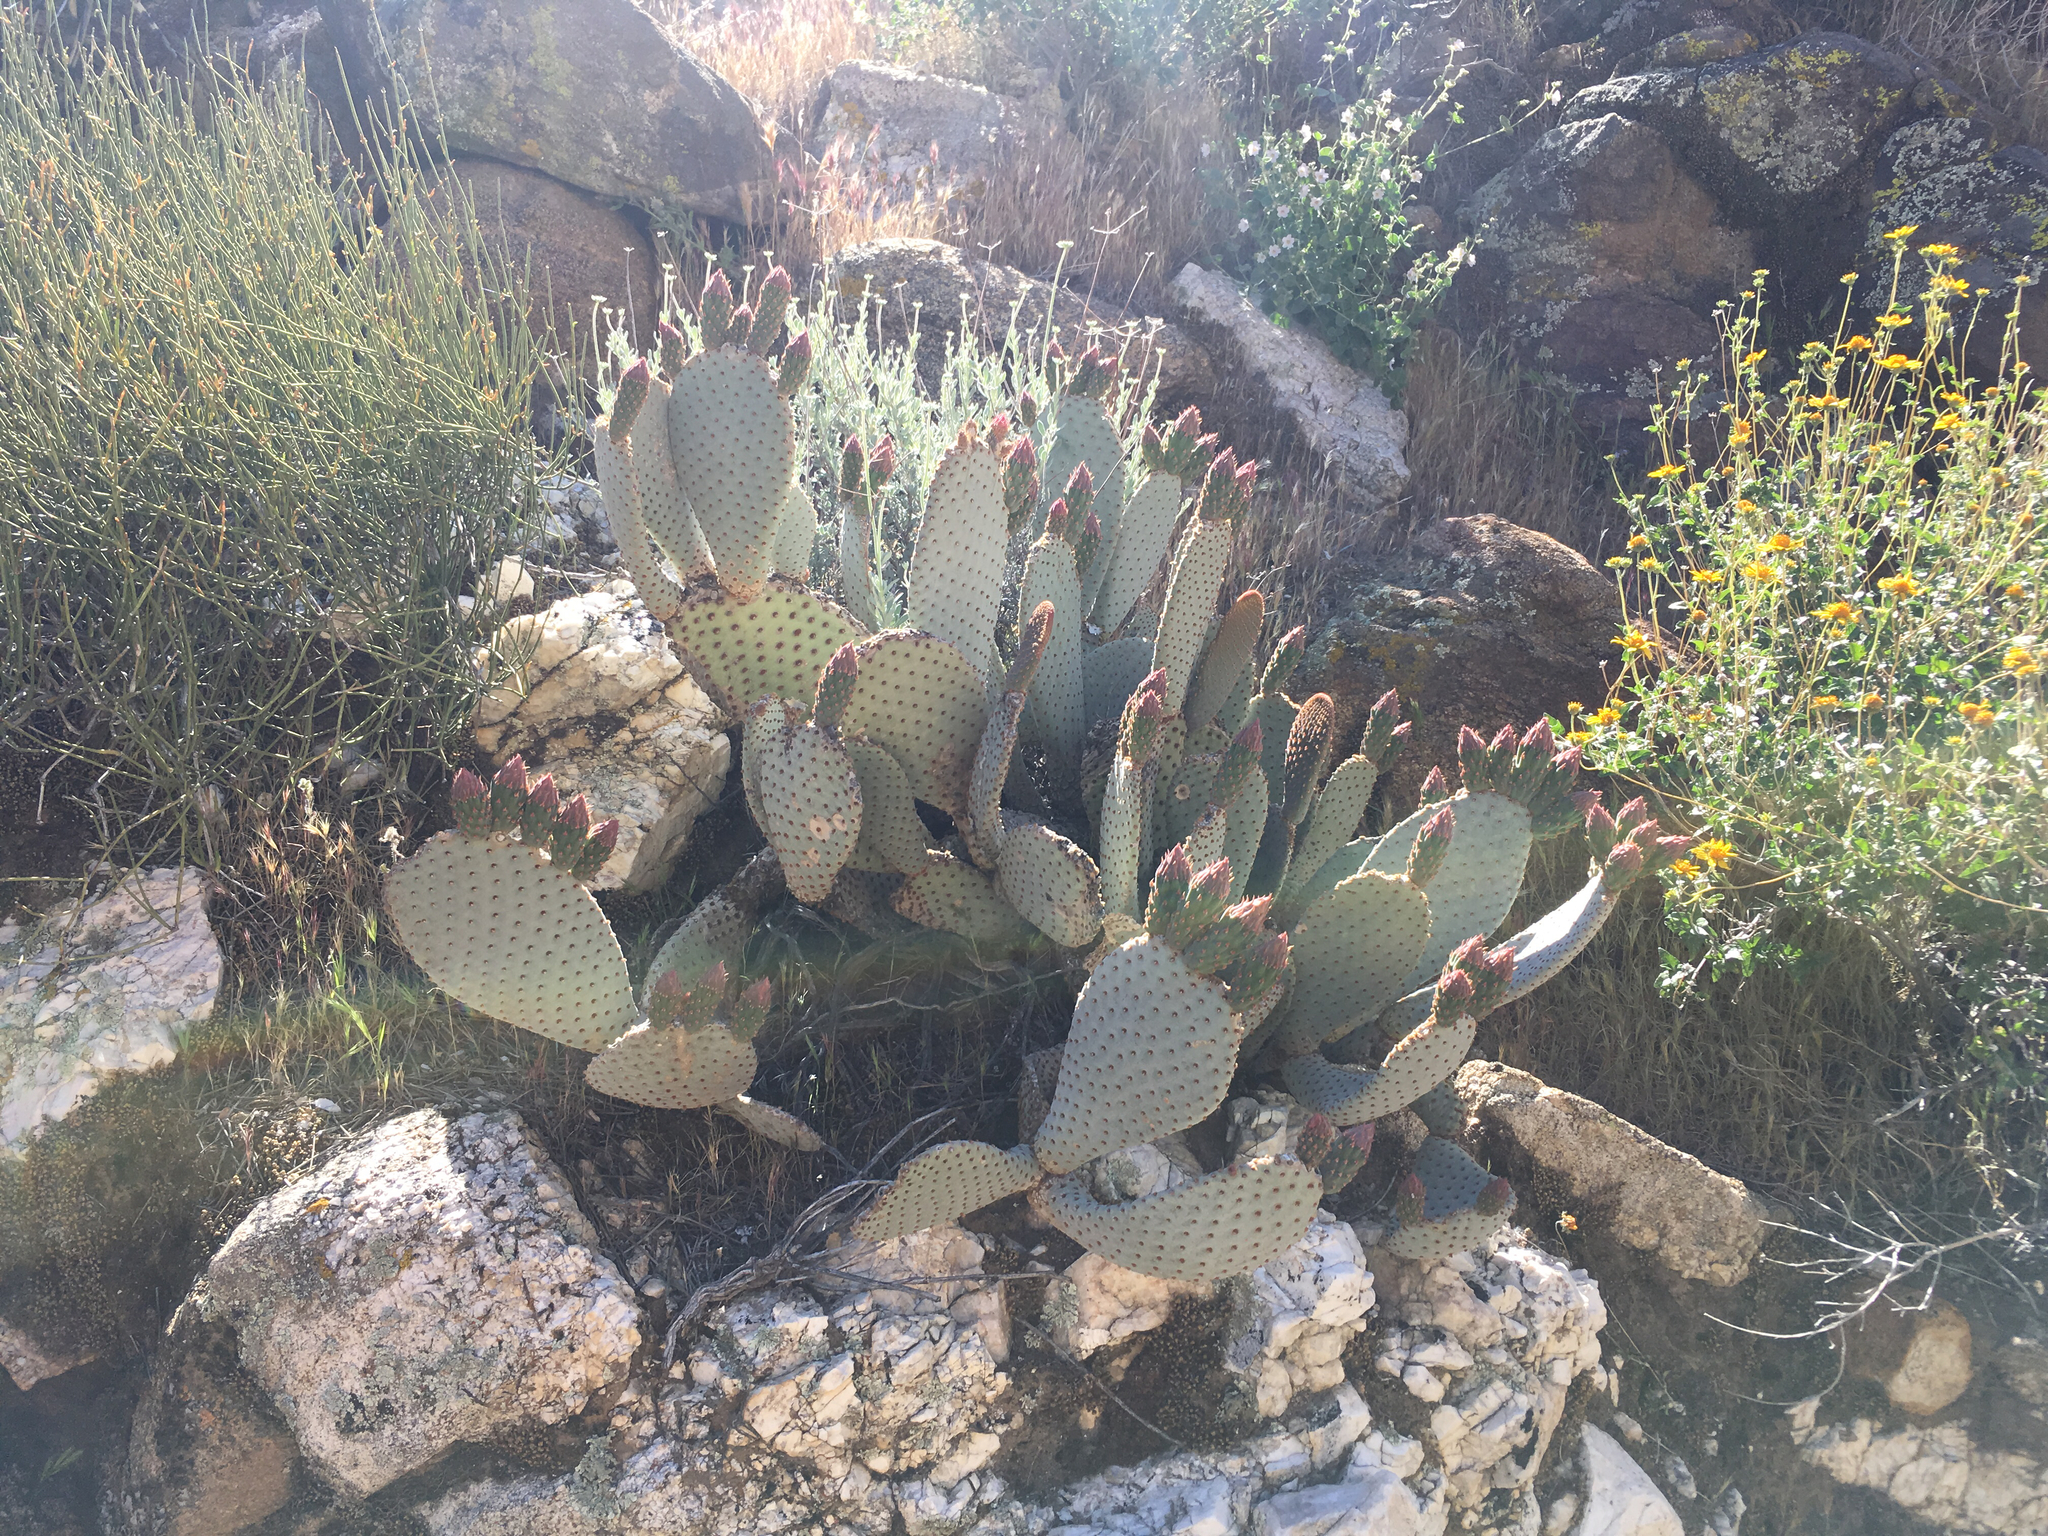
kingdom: Plantae
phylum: Tracheophyta
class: Magnoliopsida
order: Caryophyllales
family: Cactaceae
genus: Opuntia
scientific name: Opuntia basilaris
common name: Beavertail prickly-pear
